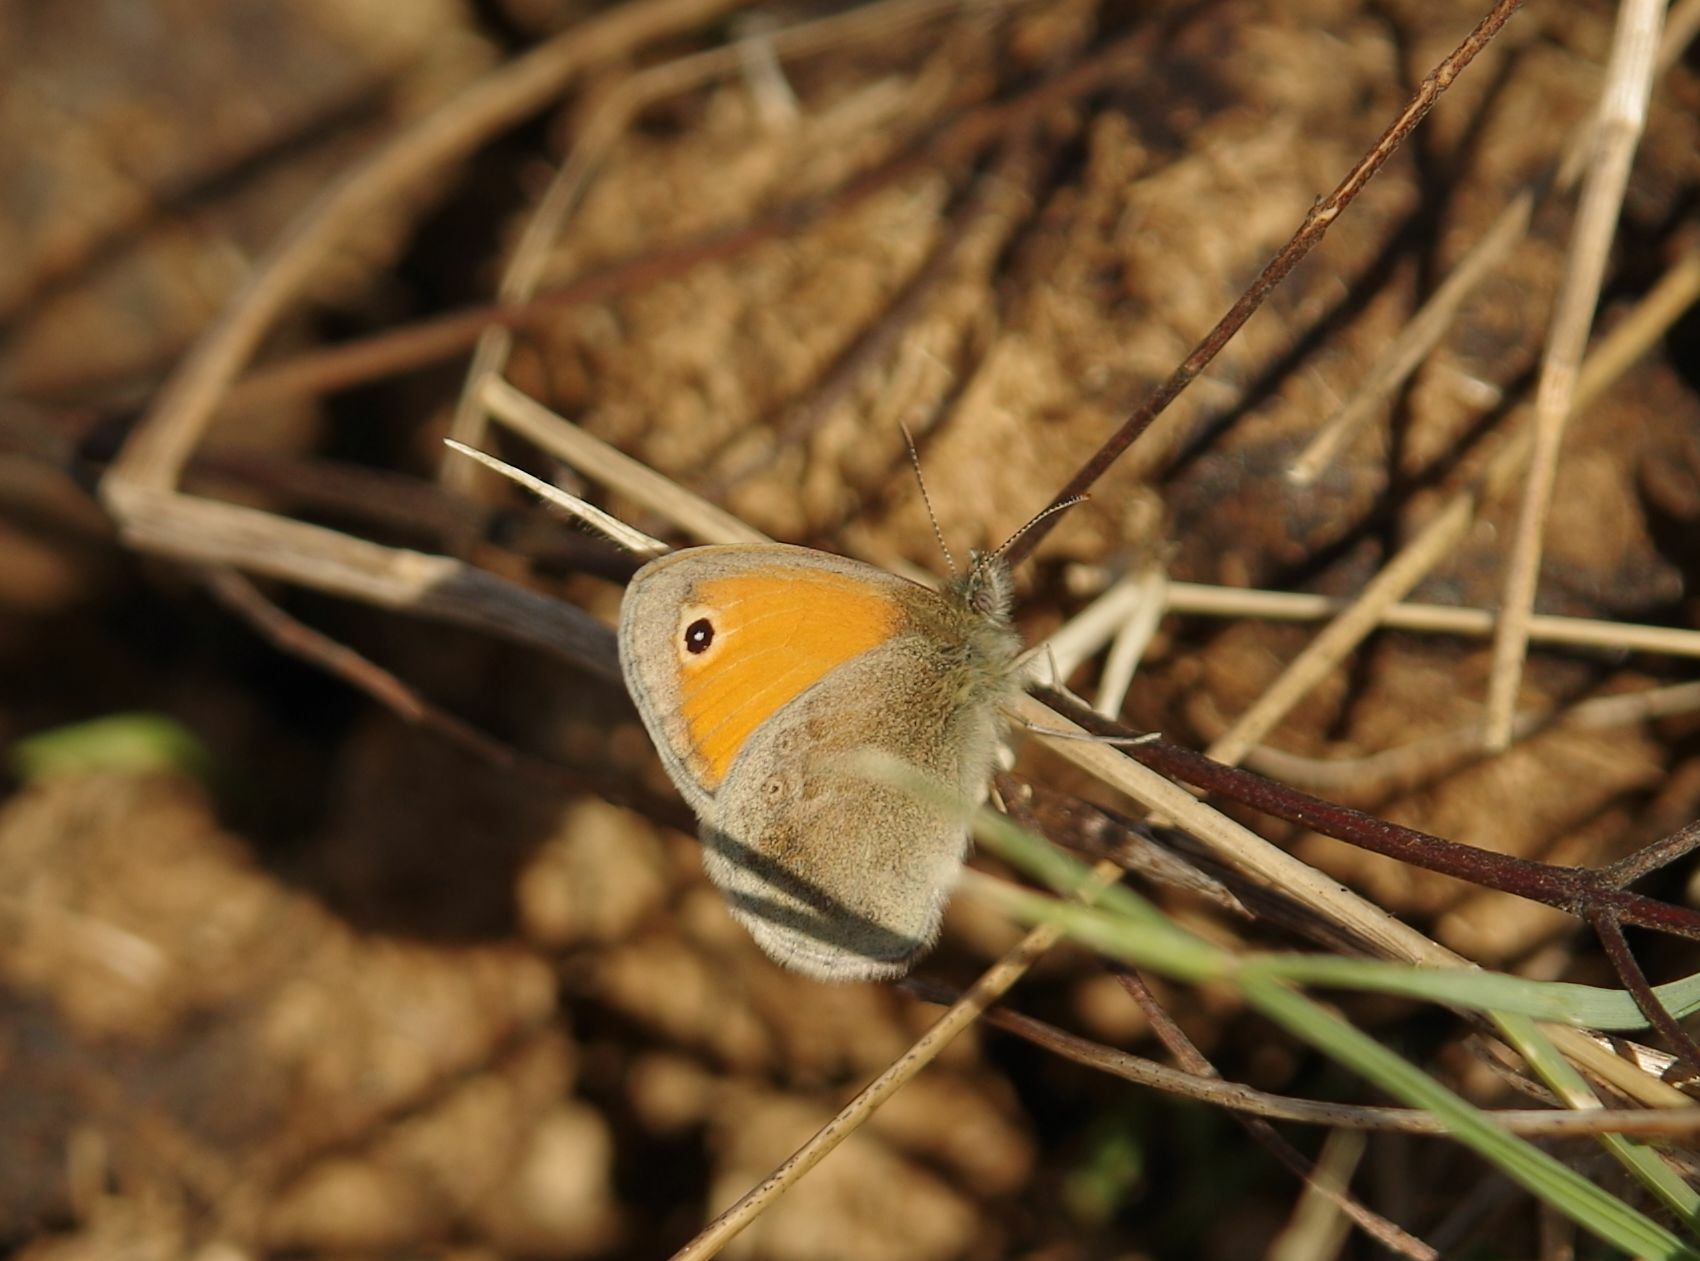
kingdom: Animalia
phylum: Arthropoda
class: Insecta
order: Lepidoptera
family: Nymphalidae
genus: Coenonympha
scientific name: Coenonympha pamphilus
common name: Small heath
